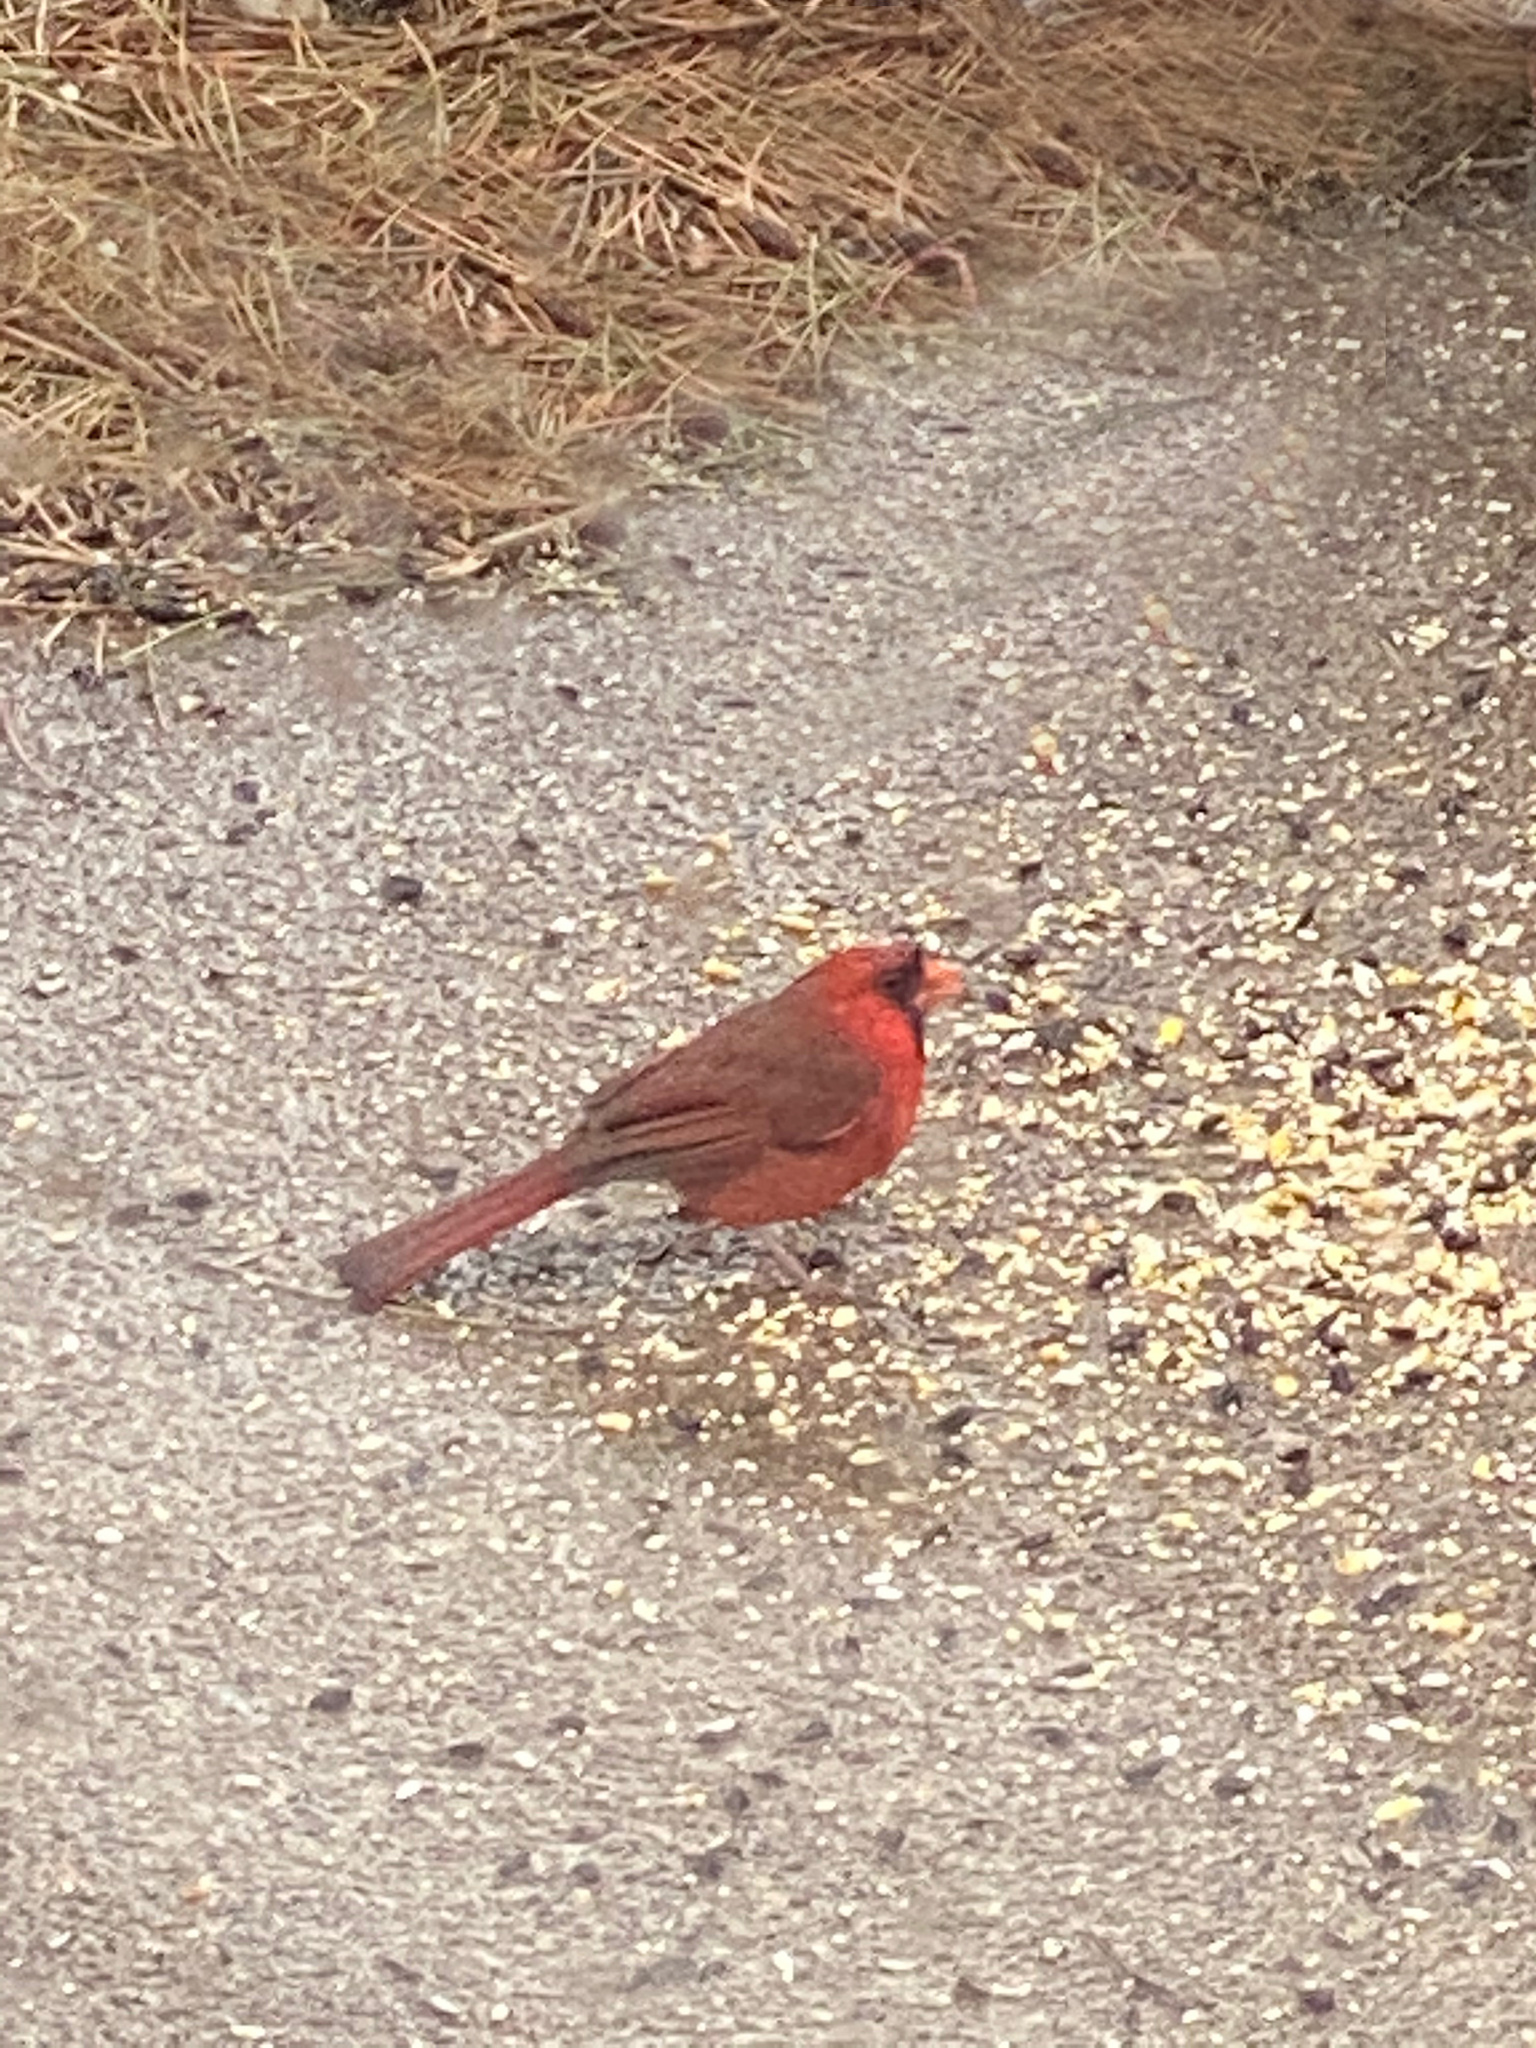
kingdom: Animalia
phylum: Chordata
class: Aves
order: Passeriformes
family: Cardinalidae
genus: Cardinalis
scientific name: Cardinalis cardinalis
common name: Northern cardinal
